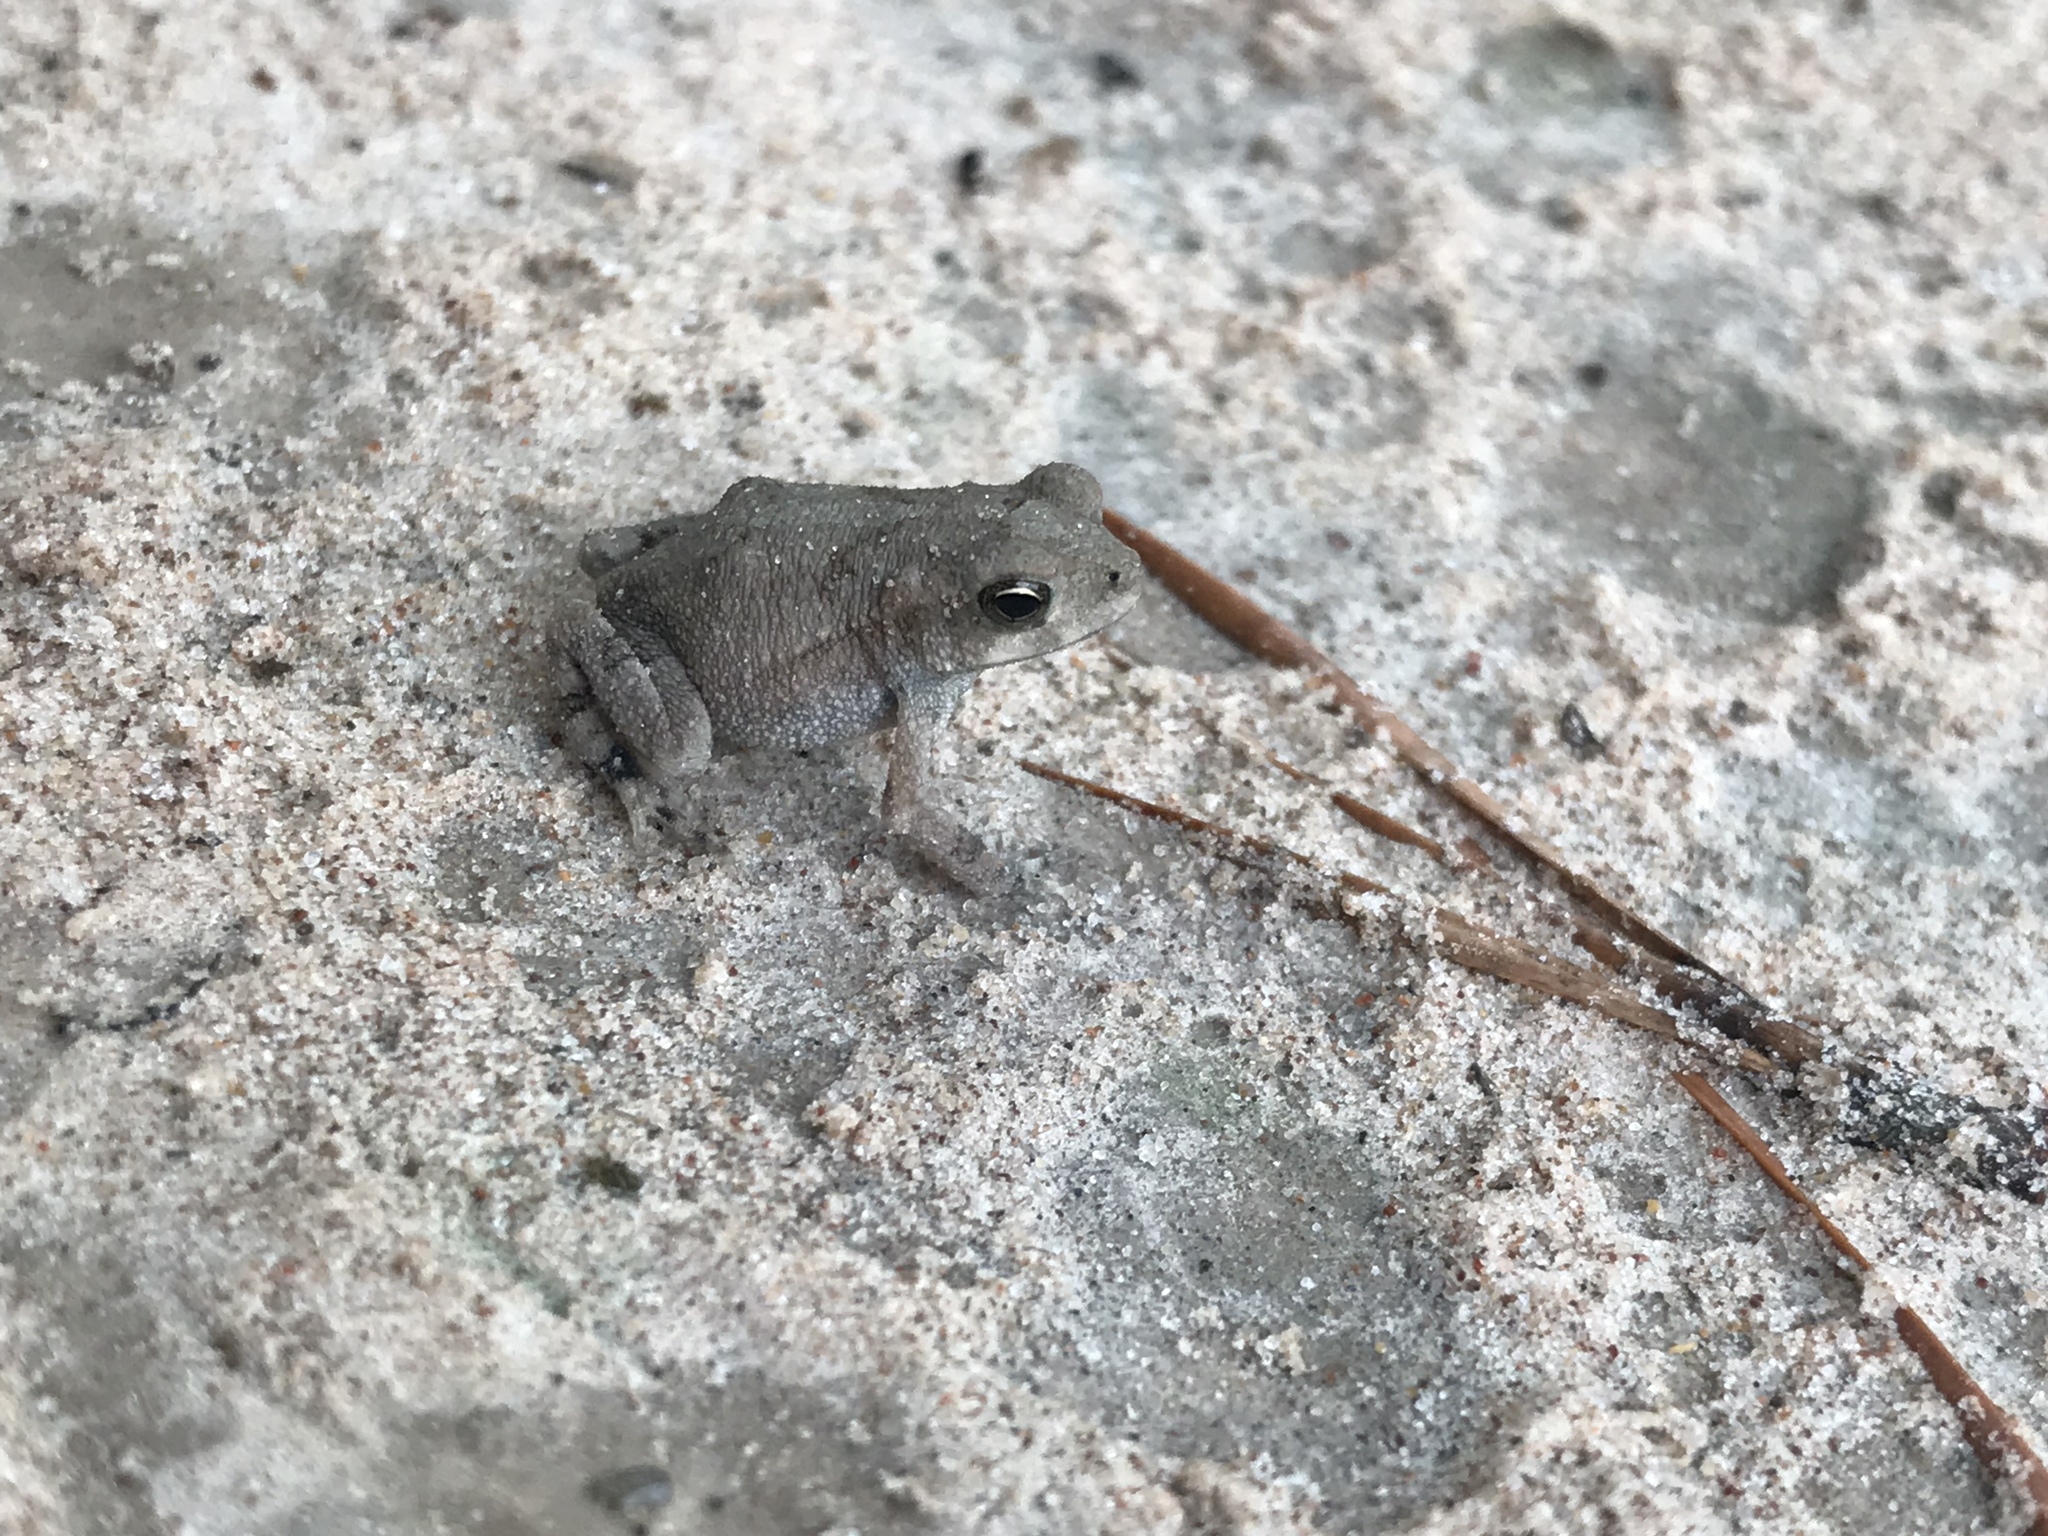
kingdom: Animalia
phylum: Chordata
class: Amphibia
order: Anura
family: Bufonidae
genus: Incilius
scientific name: Incilius nebulifer
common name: Gulf coast toad
